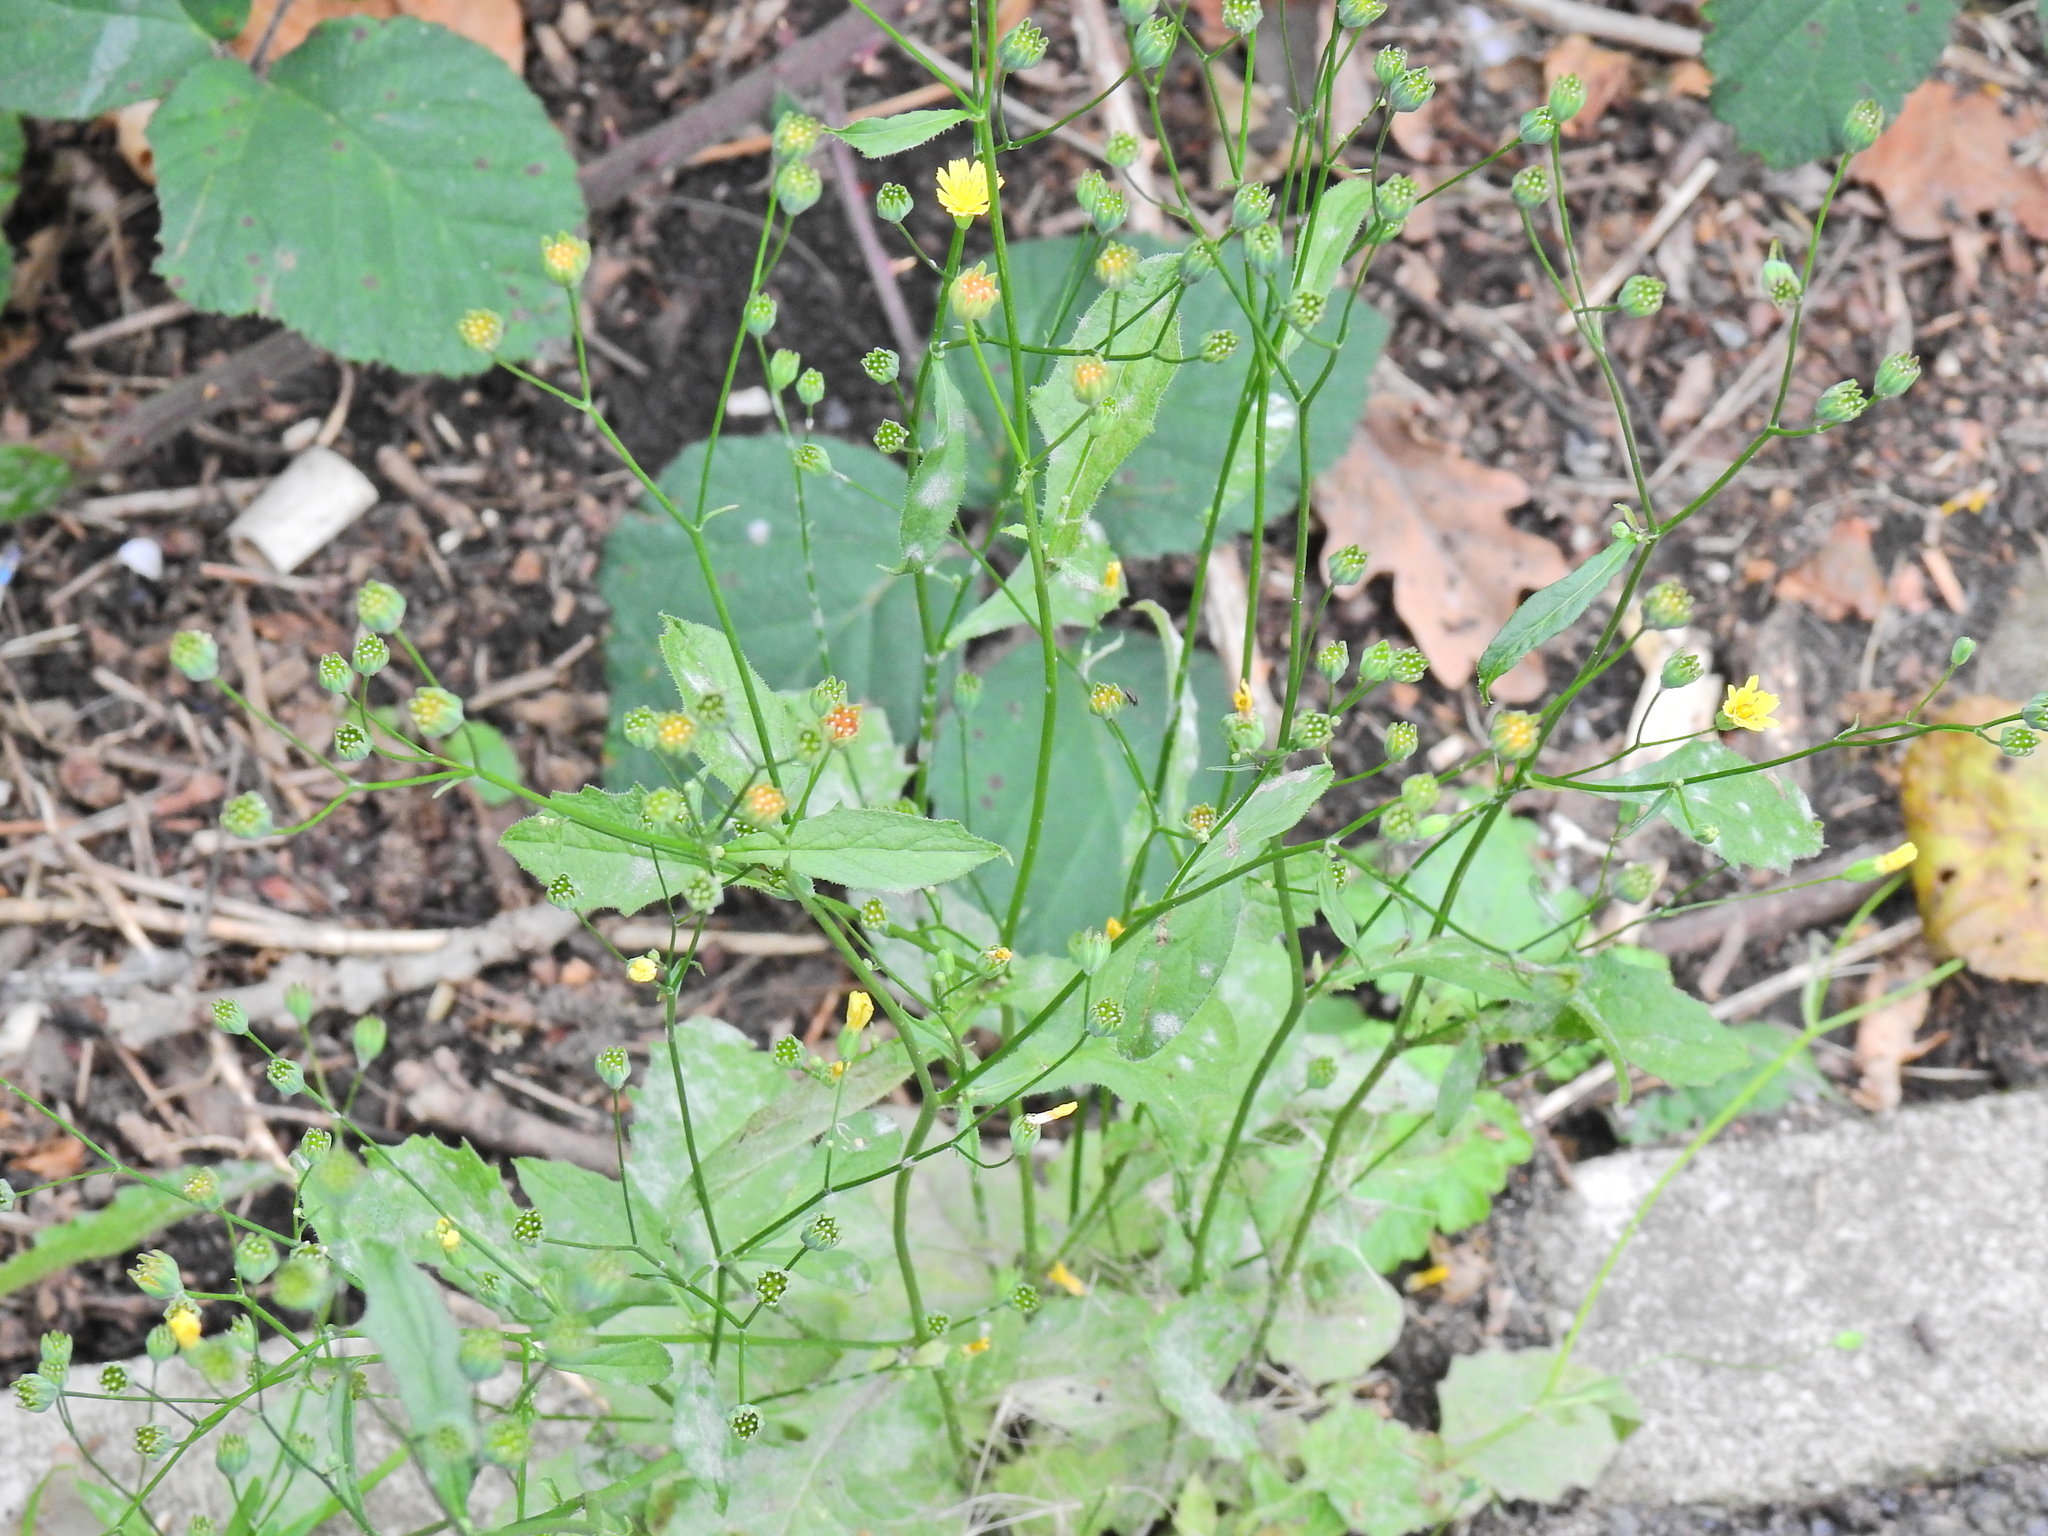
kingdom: Plantae
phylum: Tracheophyta
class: Magnoliopsida
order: Asterales
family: Asteraceae
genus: Lapsana
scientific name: Lapsana communis
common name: Nipplewort
